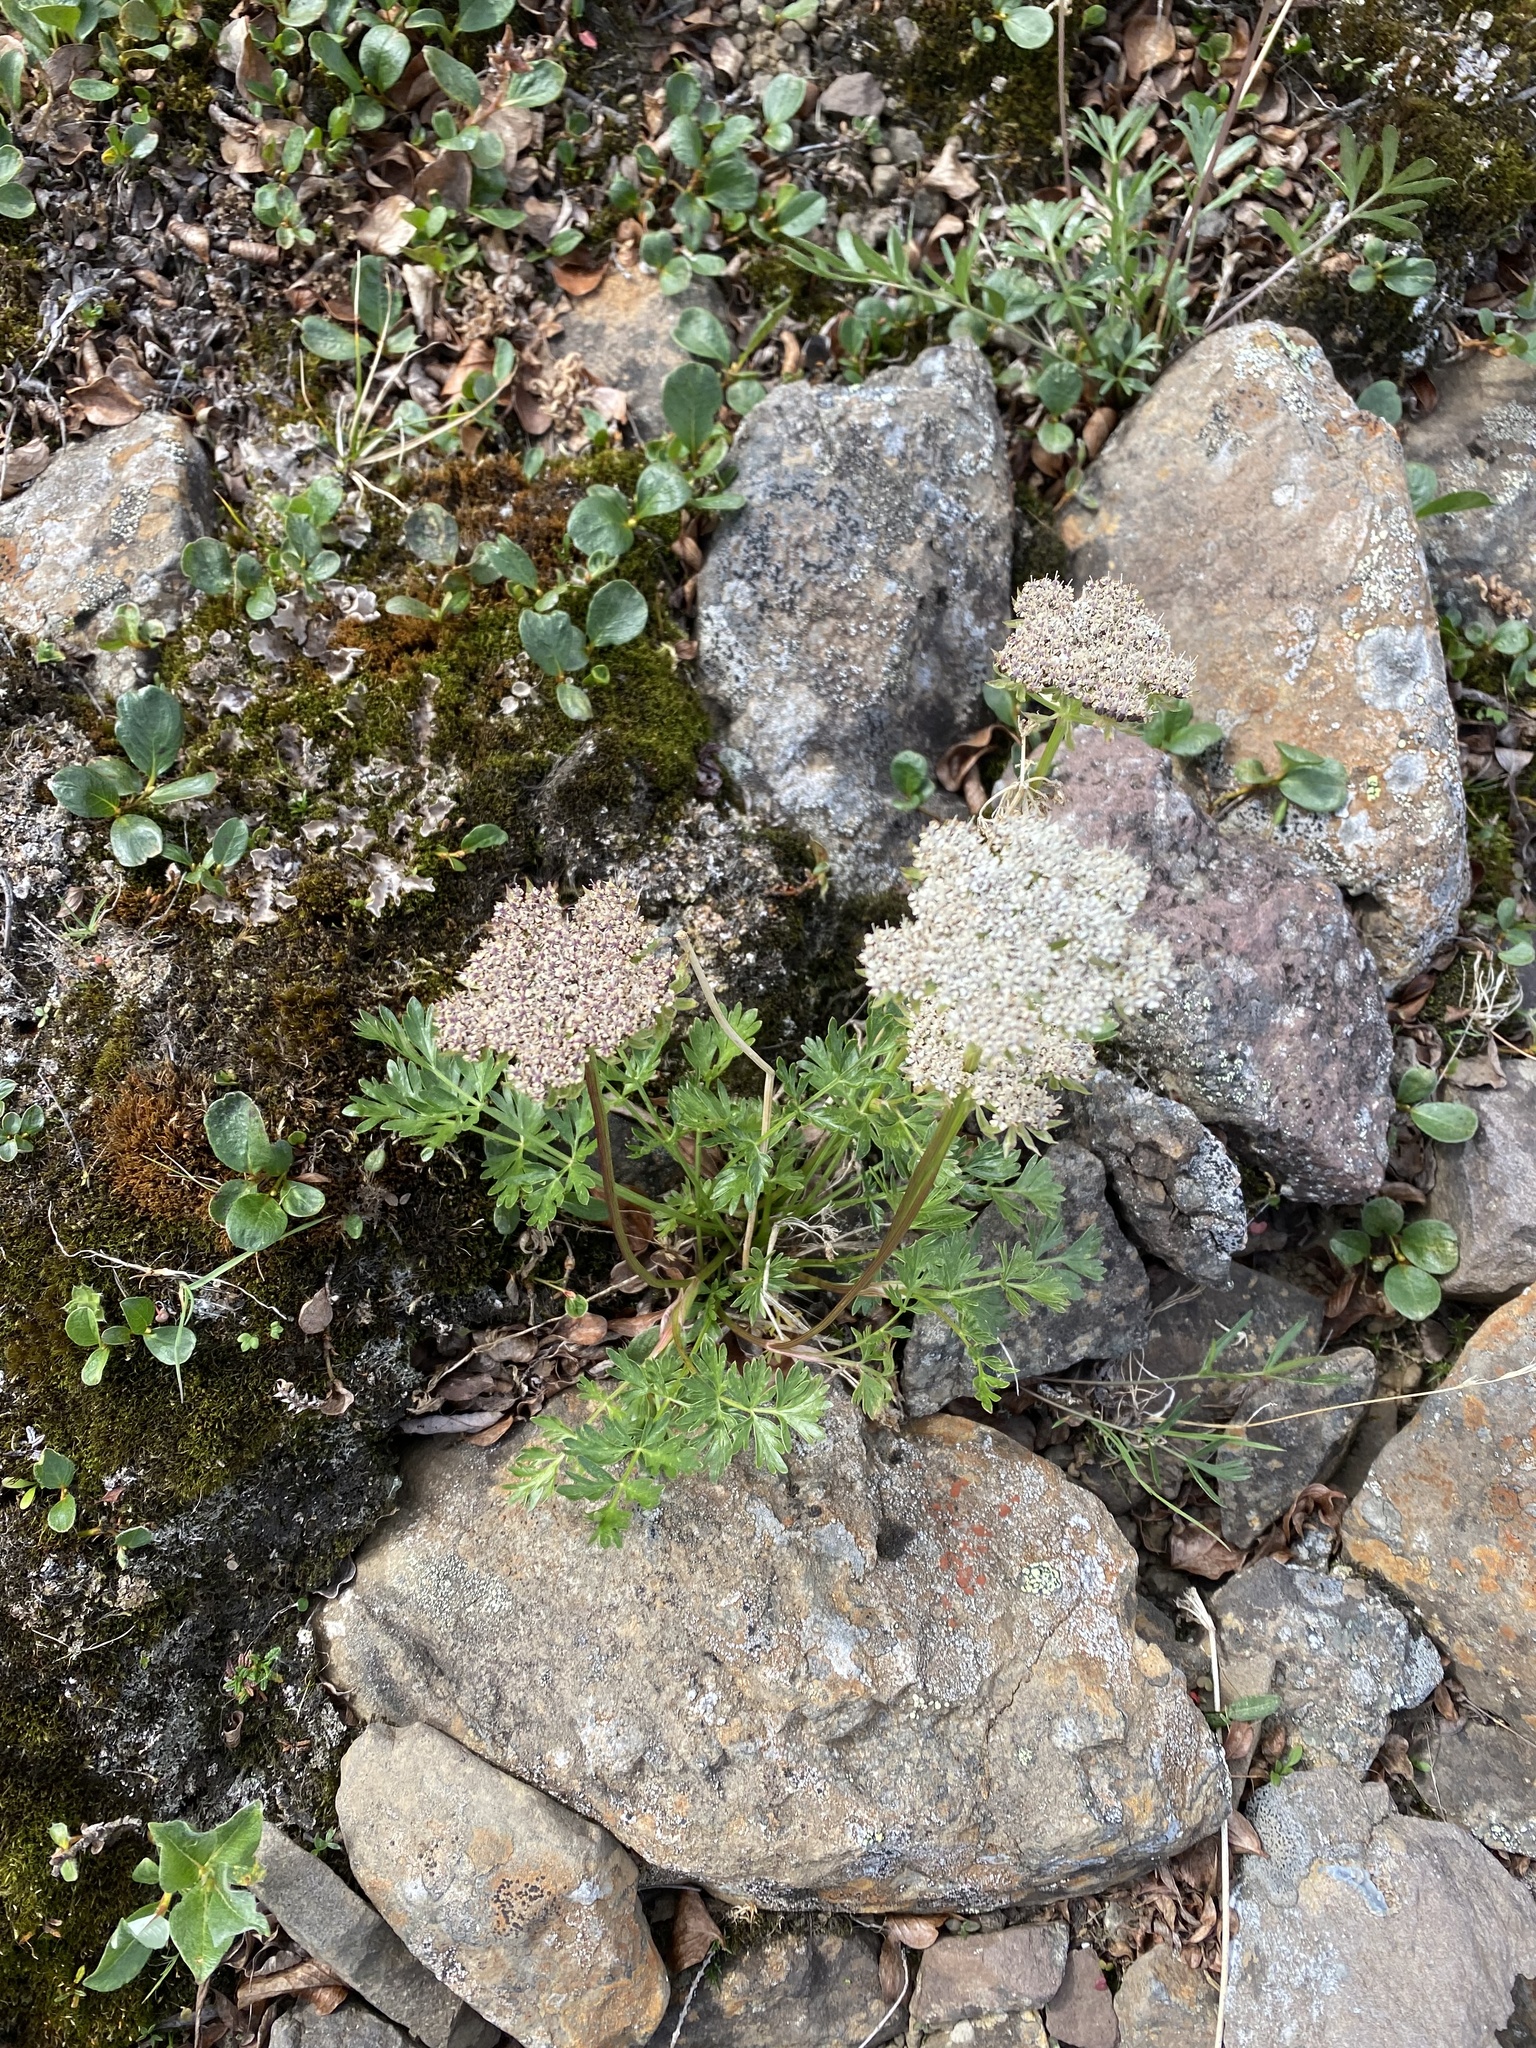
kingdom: Plantae
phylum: Tracheophyta
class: Magnoliopsida
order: Apiales
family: Apiaceae
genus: Pachypleurum
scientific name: Pachypleurum mutellinoides
